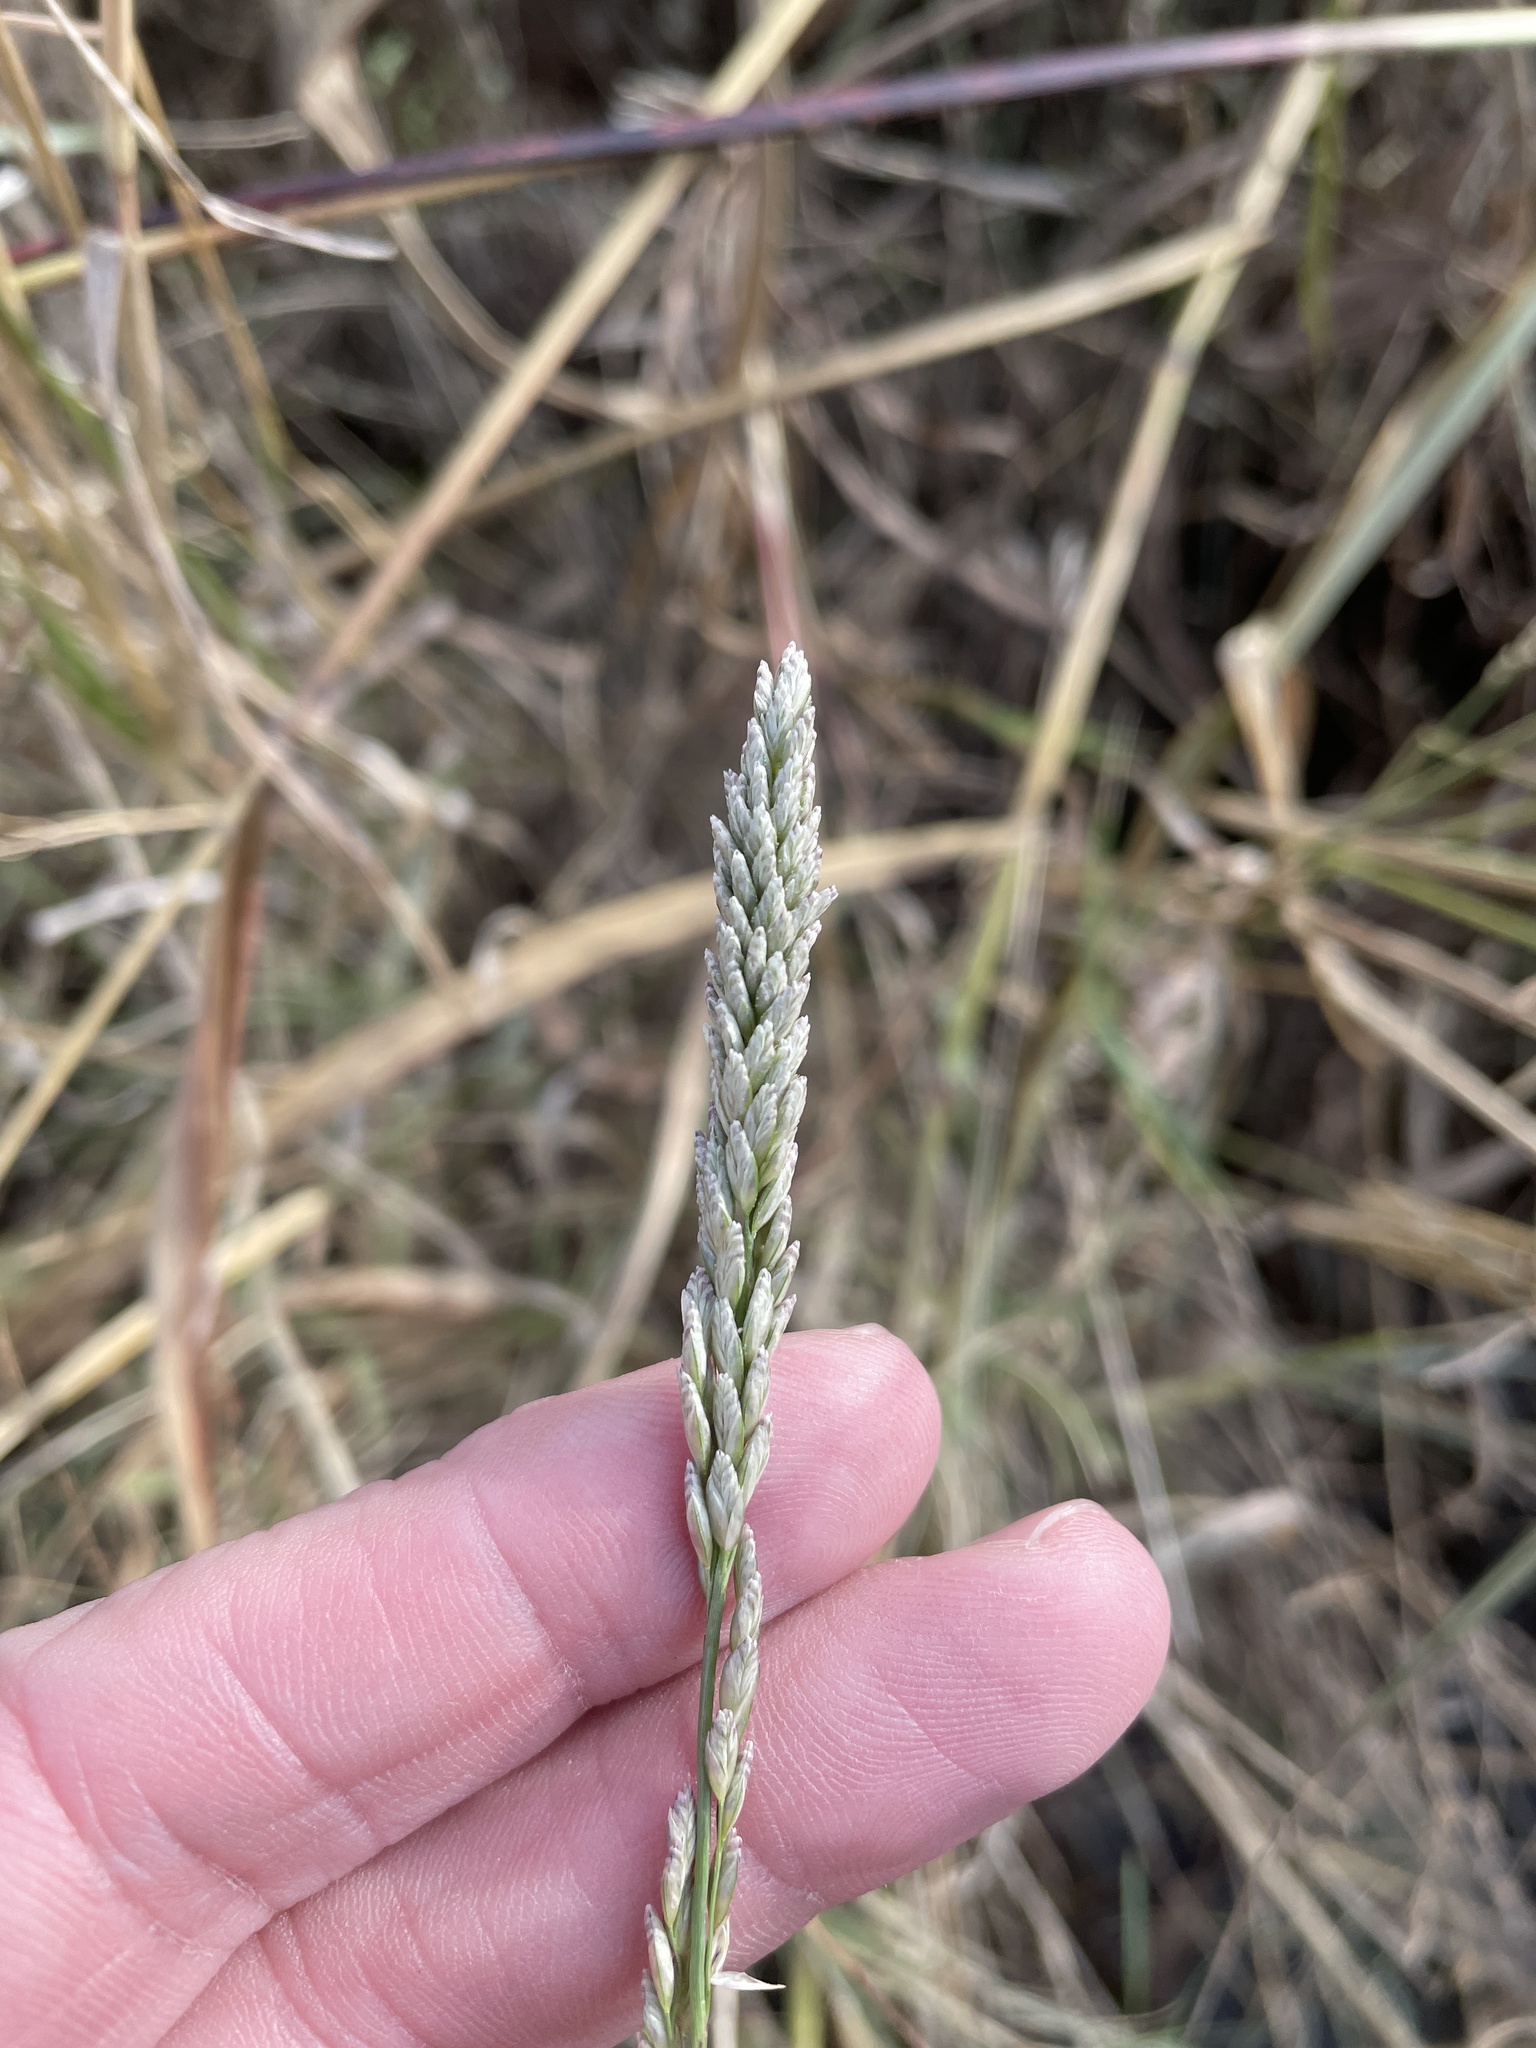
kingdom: Plantae
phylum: Tracheophyta
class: Liliopsida
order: Poales
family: Poaceae
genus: Tridens
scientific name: Tridens albescens
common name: White tridens
